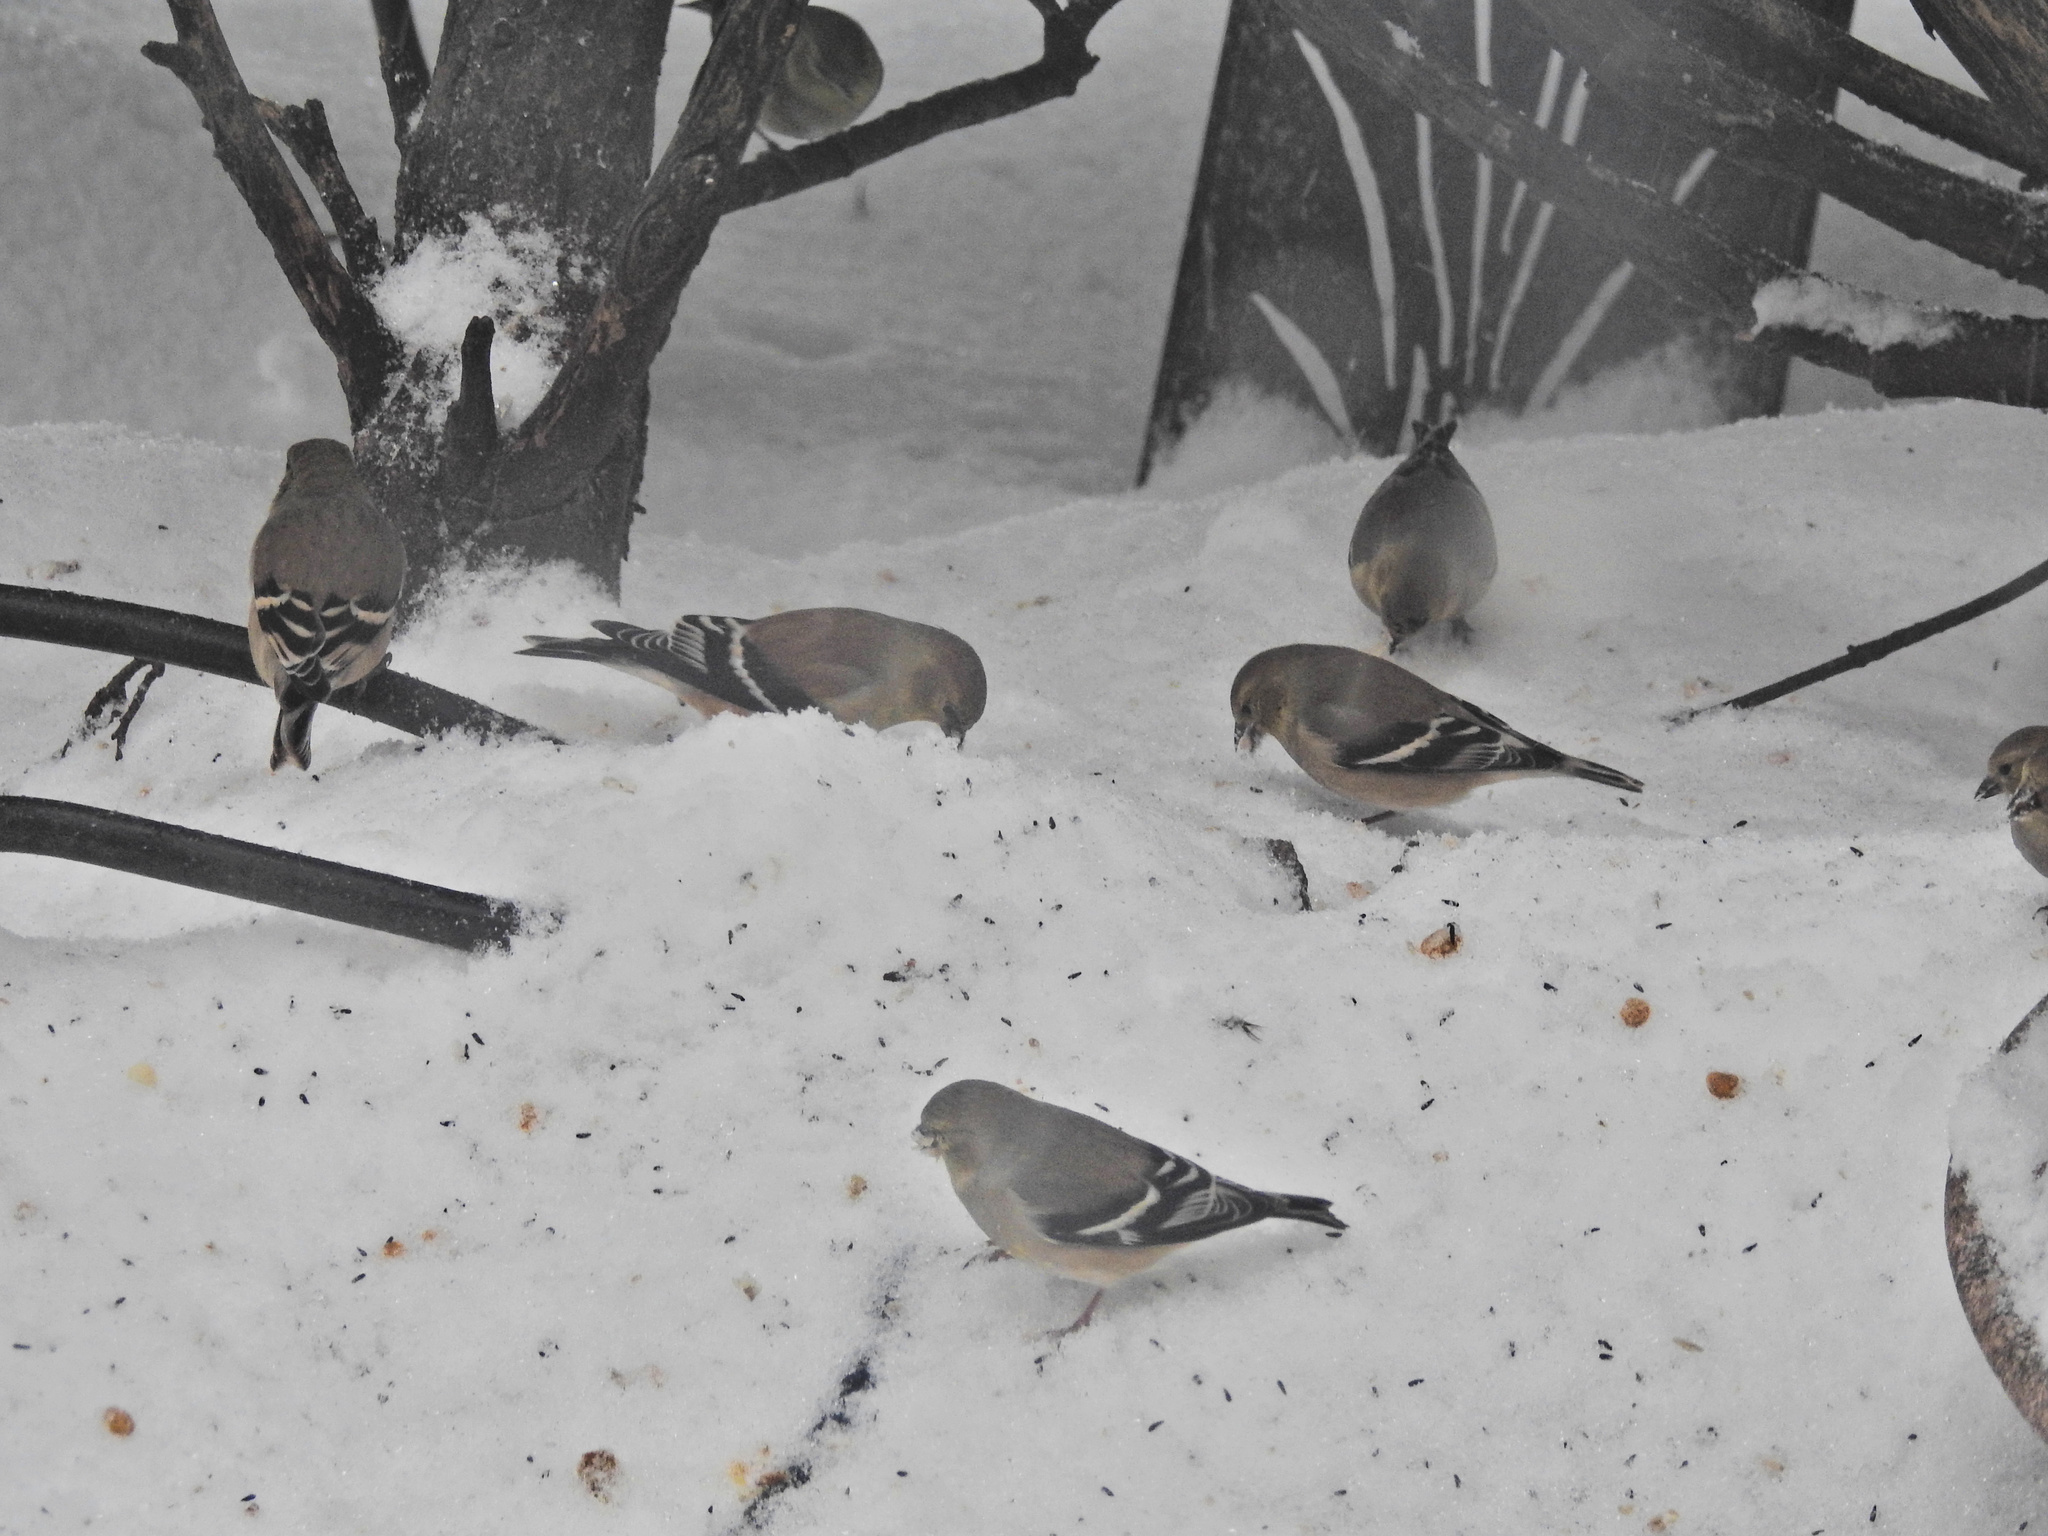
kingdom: Animalia
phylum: Chordata
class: Aves
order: Passeriformes
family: Fringillidae
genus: Spinus
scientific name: Spinus tristis
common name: American goldfinch
